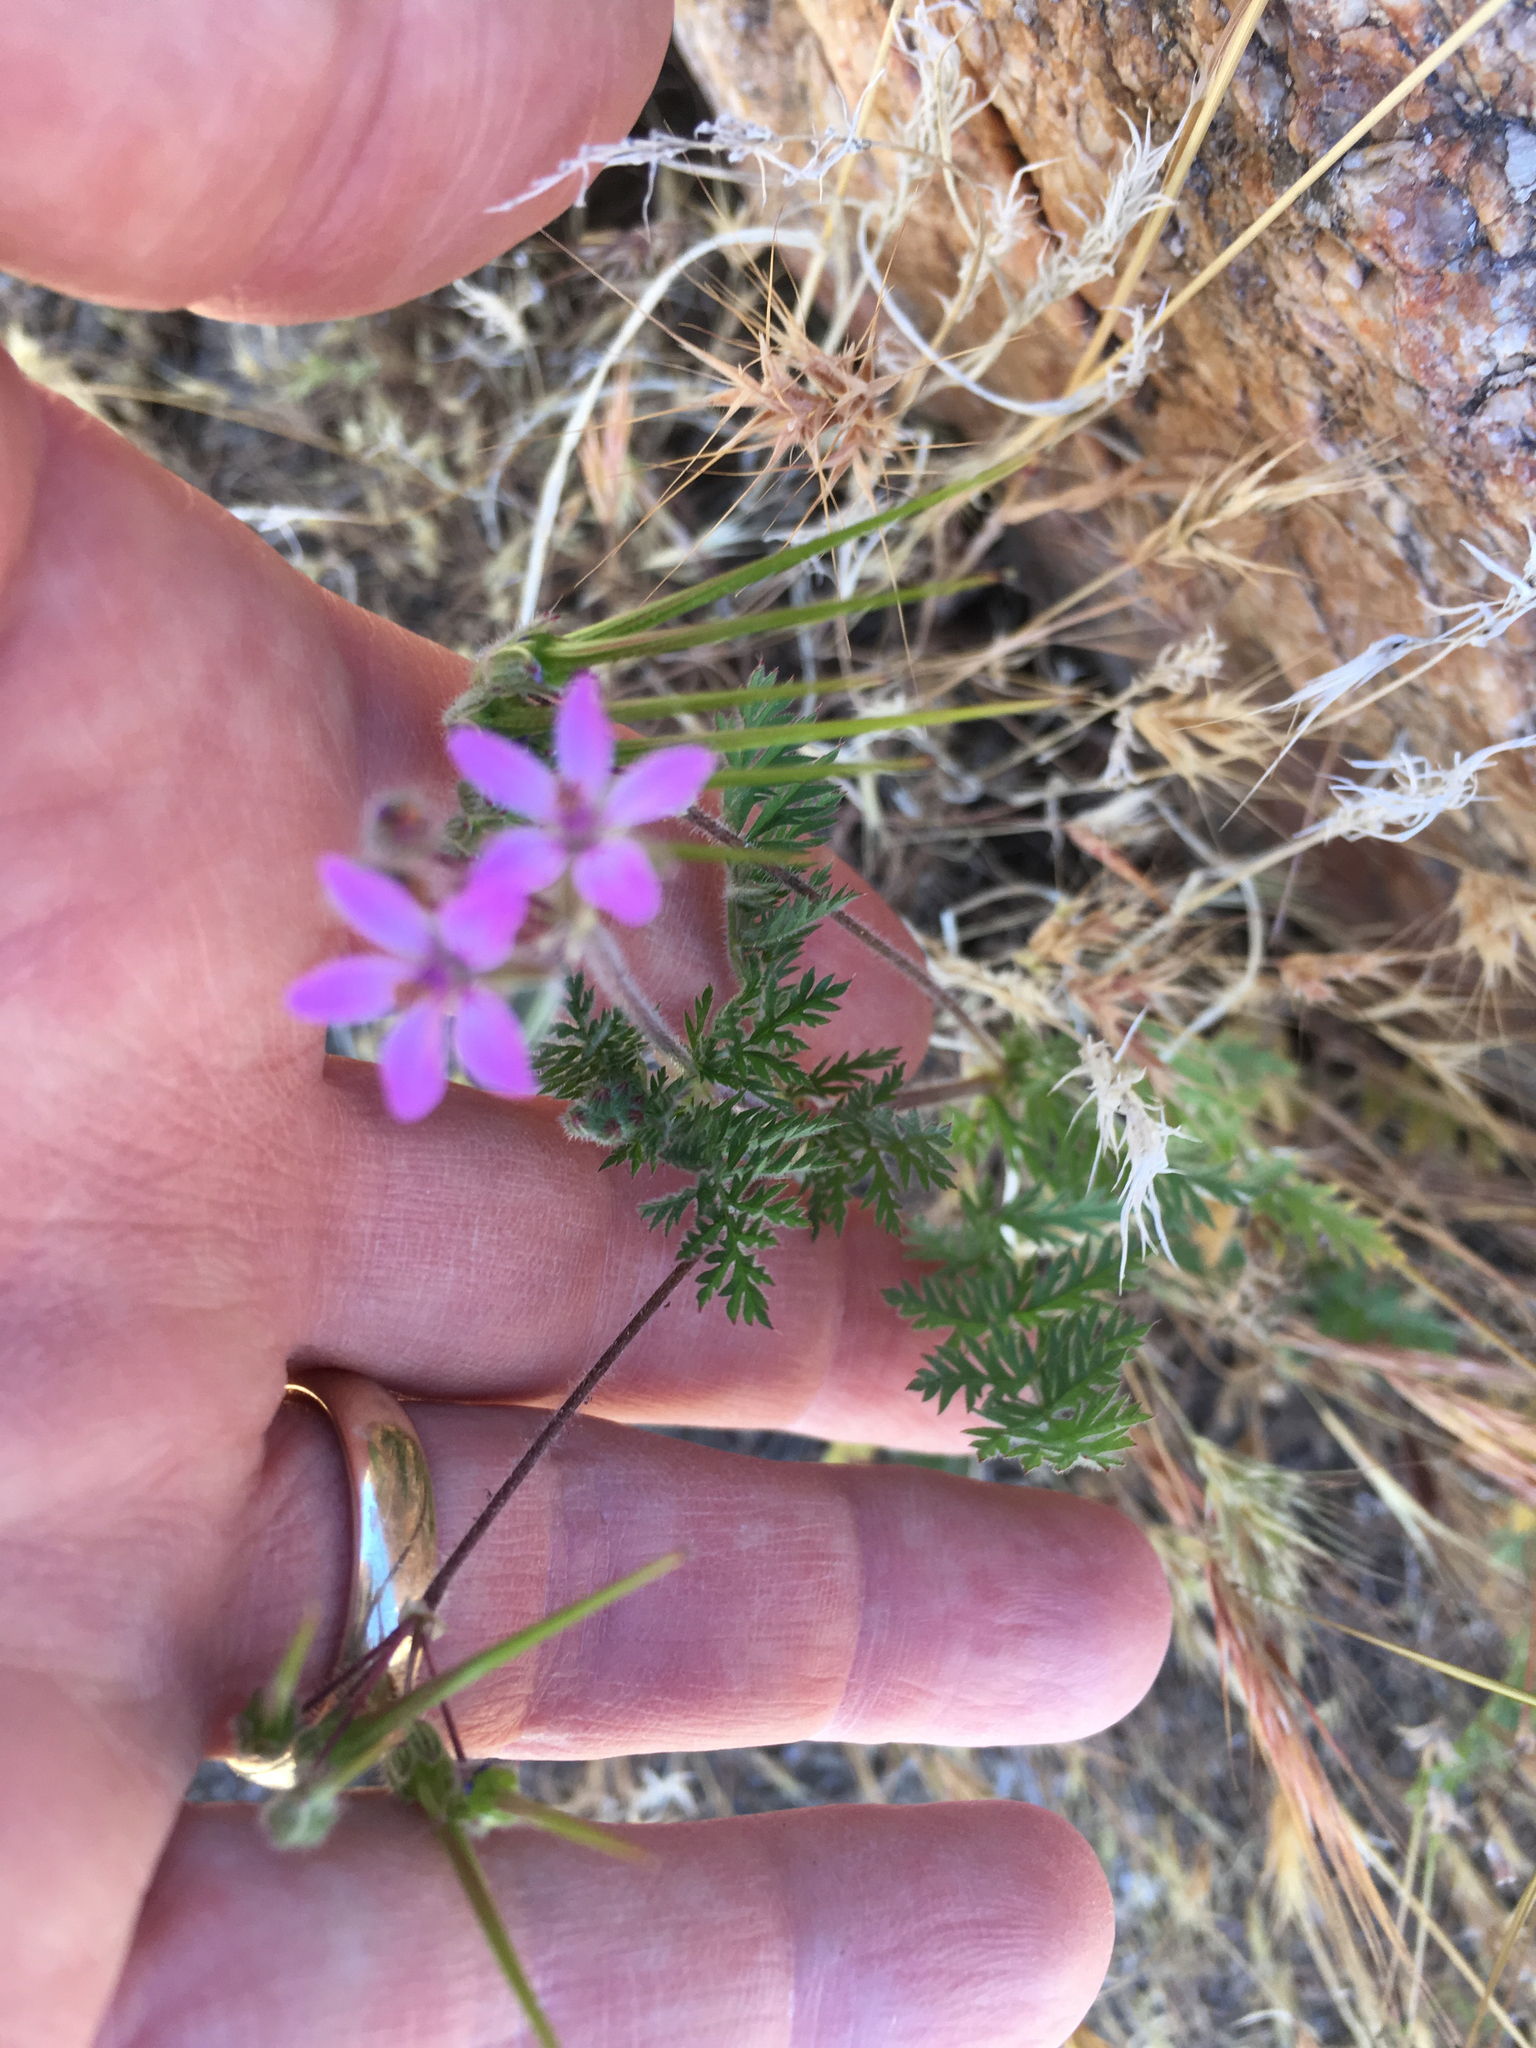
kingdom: Plantae
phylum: Tracheophyta
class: Magnoliopsida
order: Geraniales
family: Geraniaceae
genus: Erodium
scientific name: Erodium cicutarium
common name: Common stork's-bill
